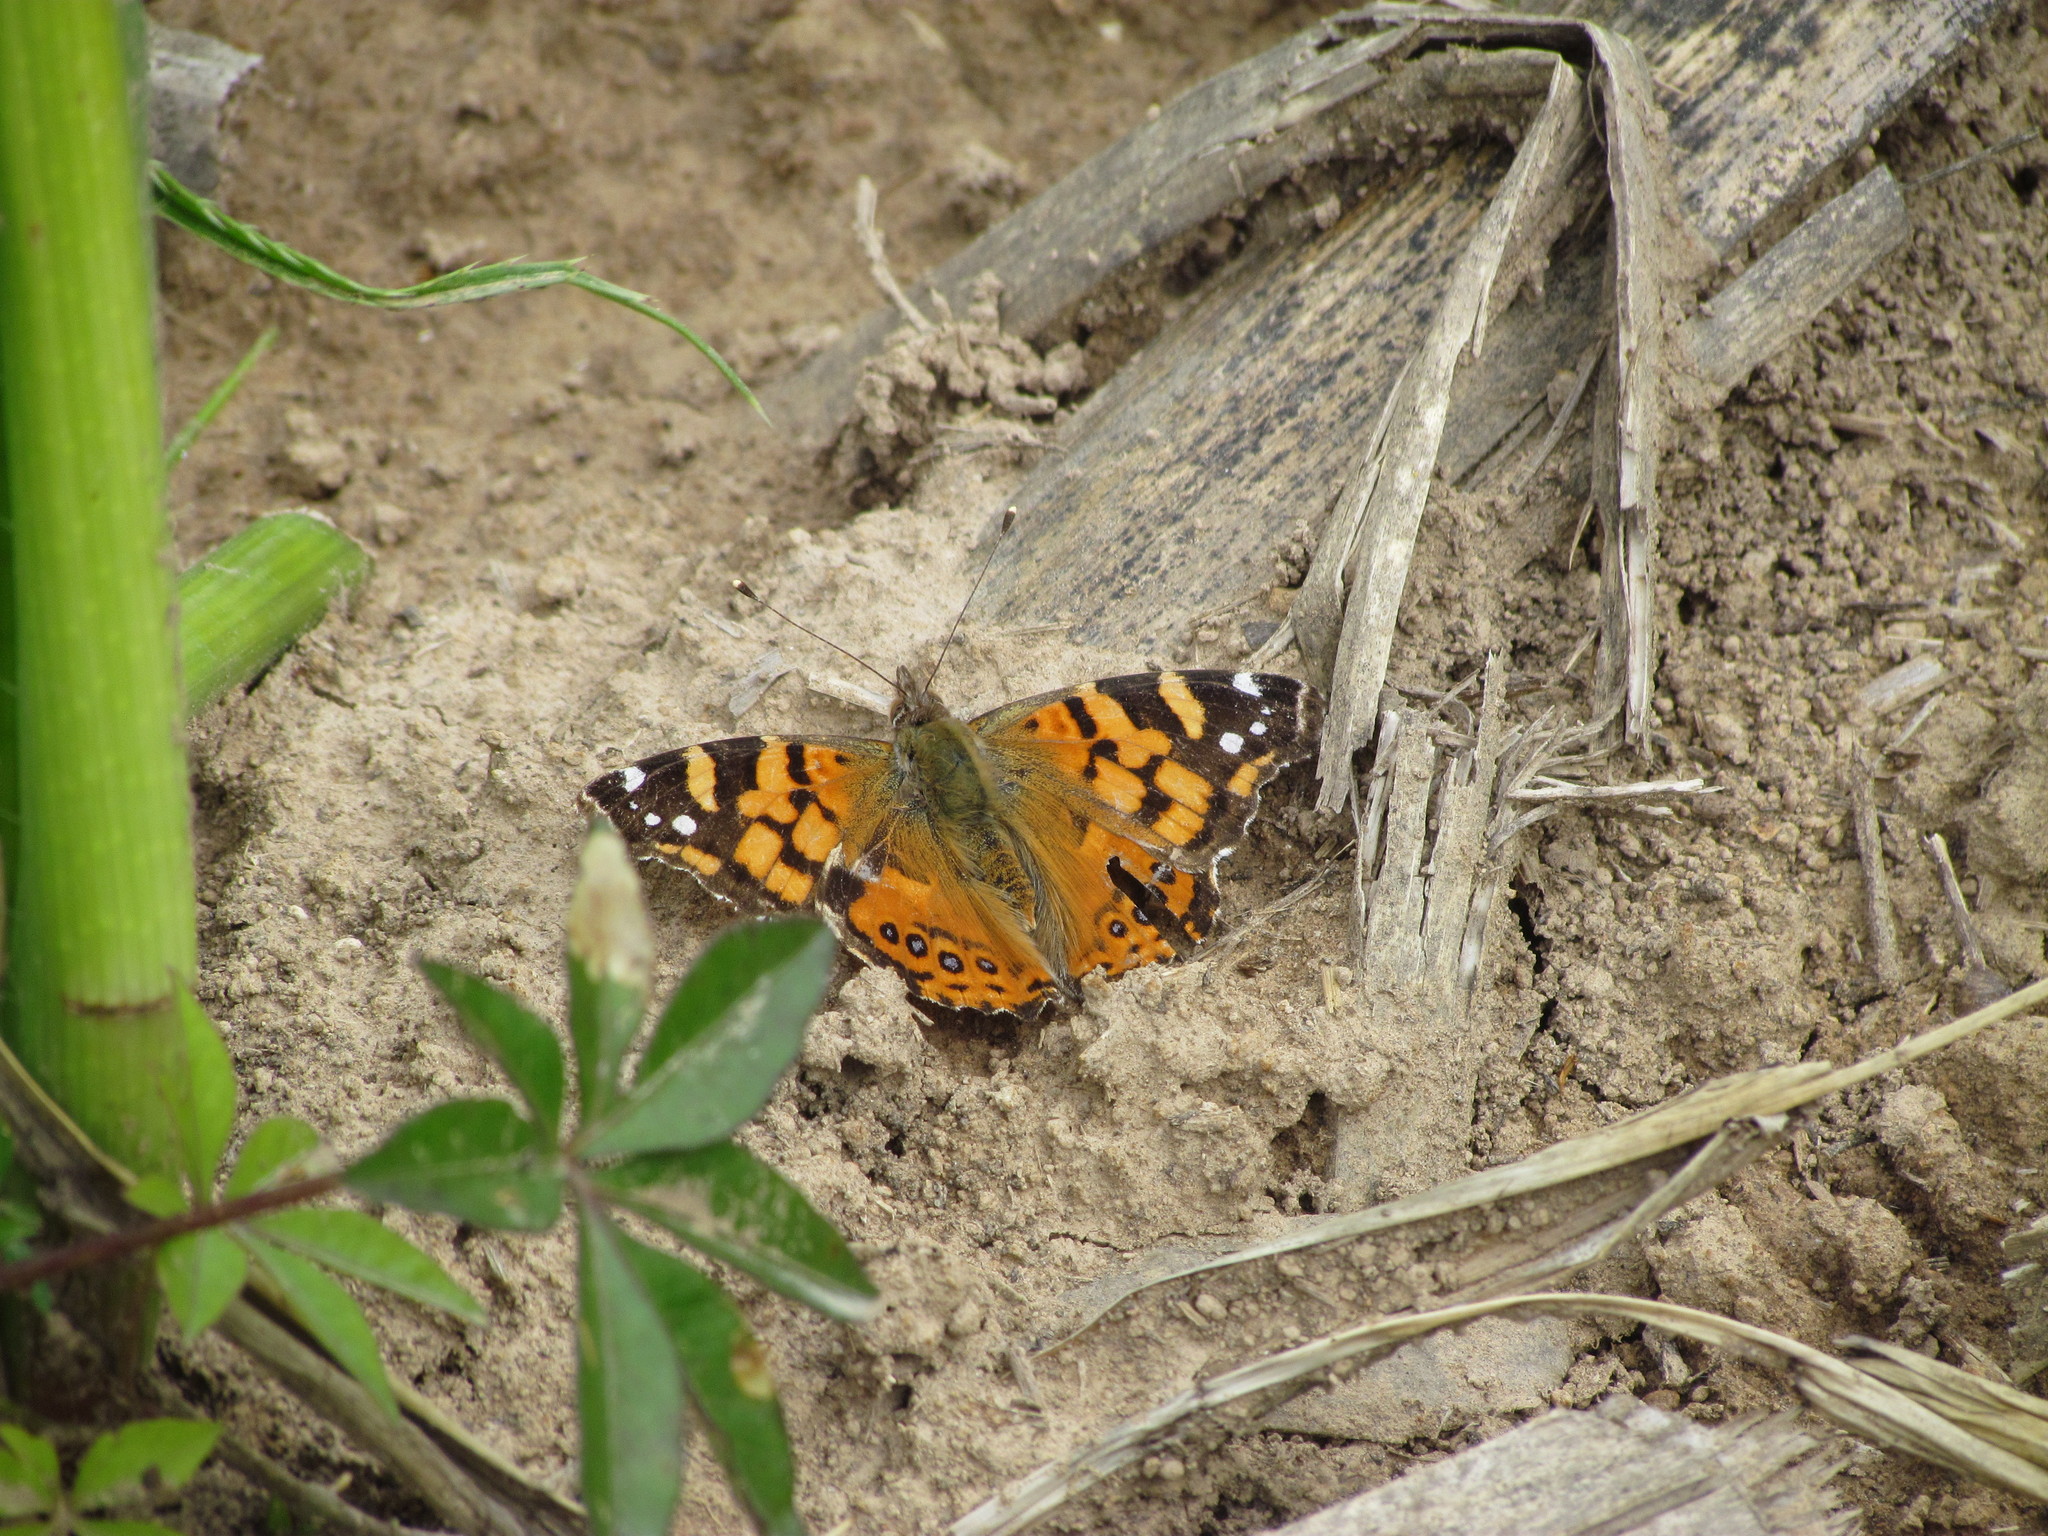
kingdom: Animalia
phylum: Arthropoda
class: Insecta
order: Lepidoptera
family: Nymphalidae
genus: Vanessa
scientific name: Vanessa carye
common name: Subtropical lady
